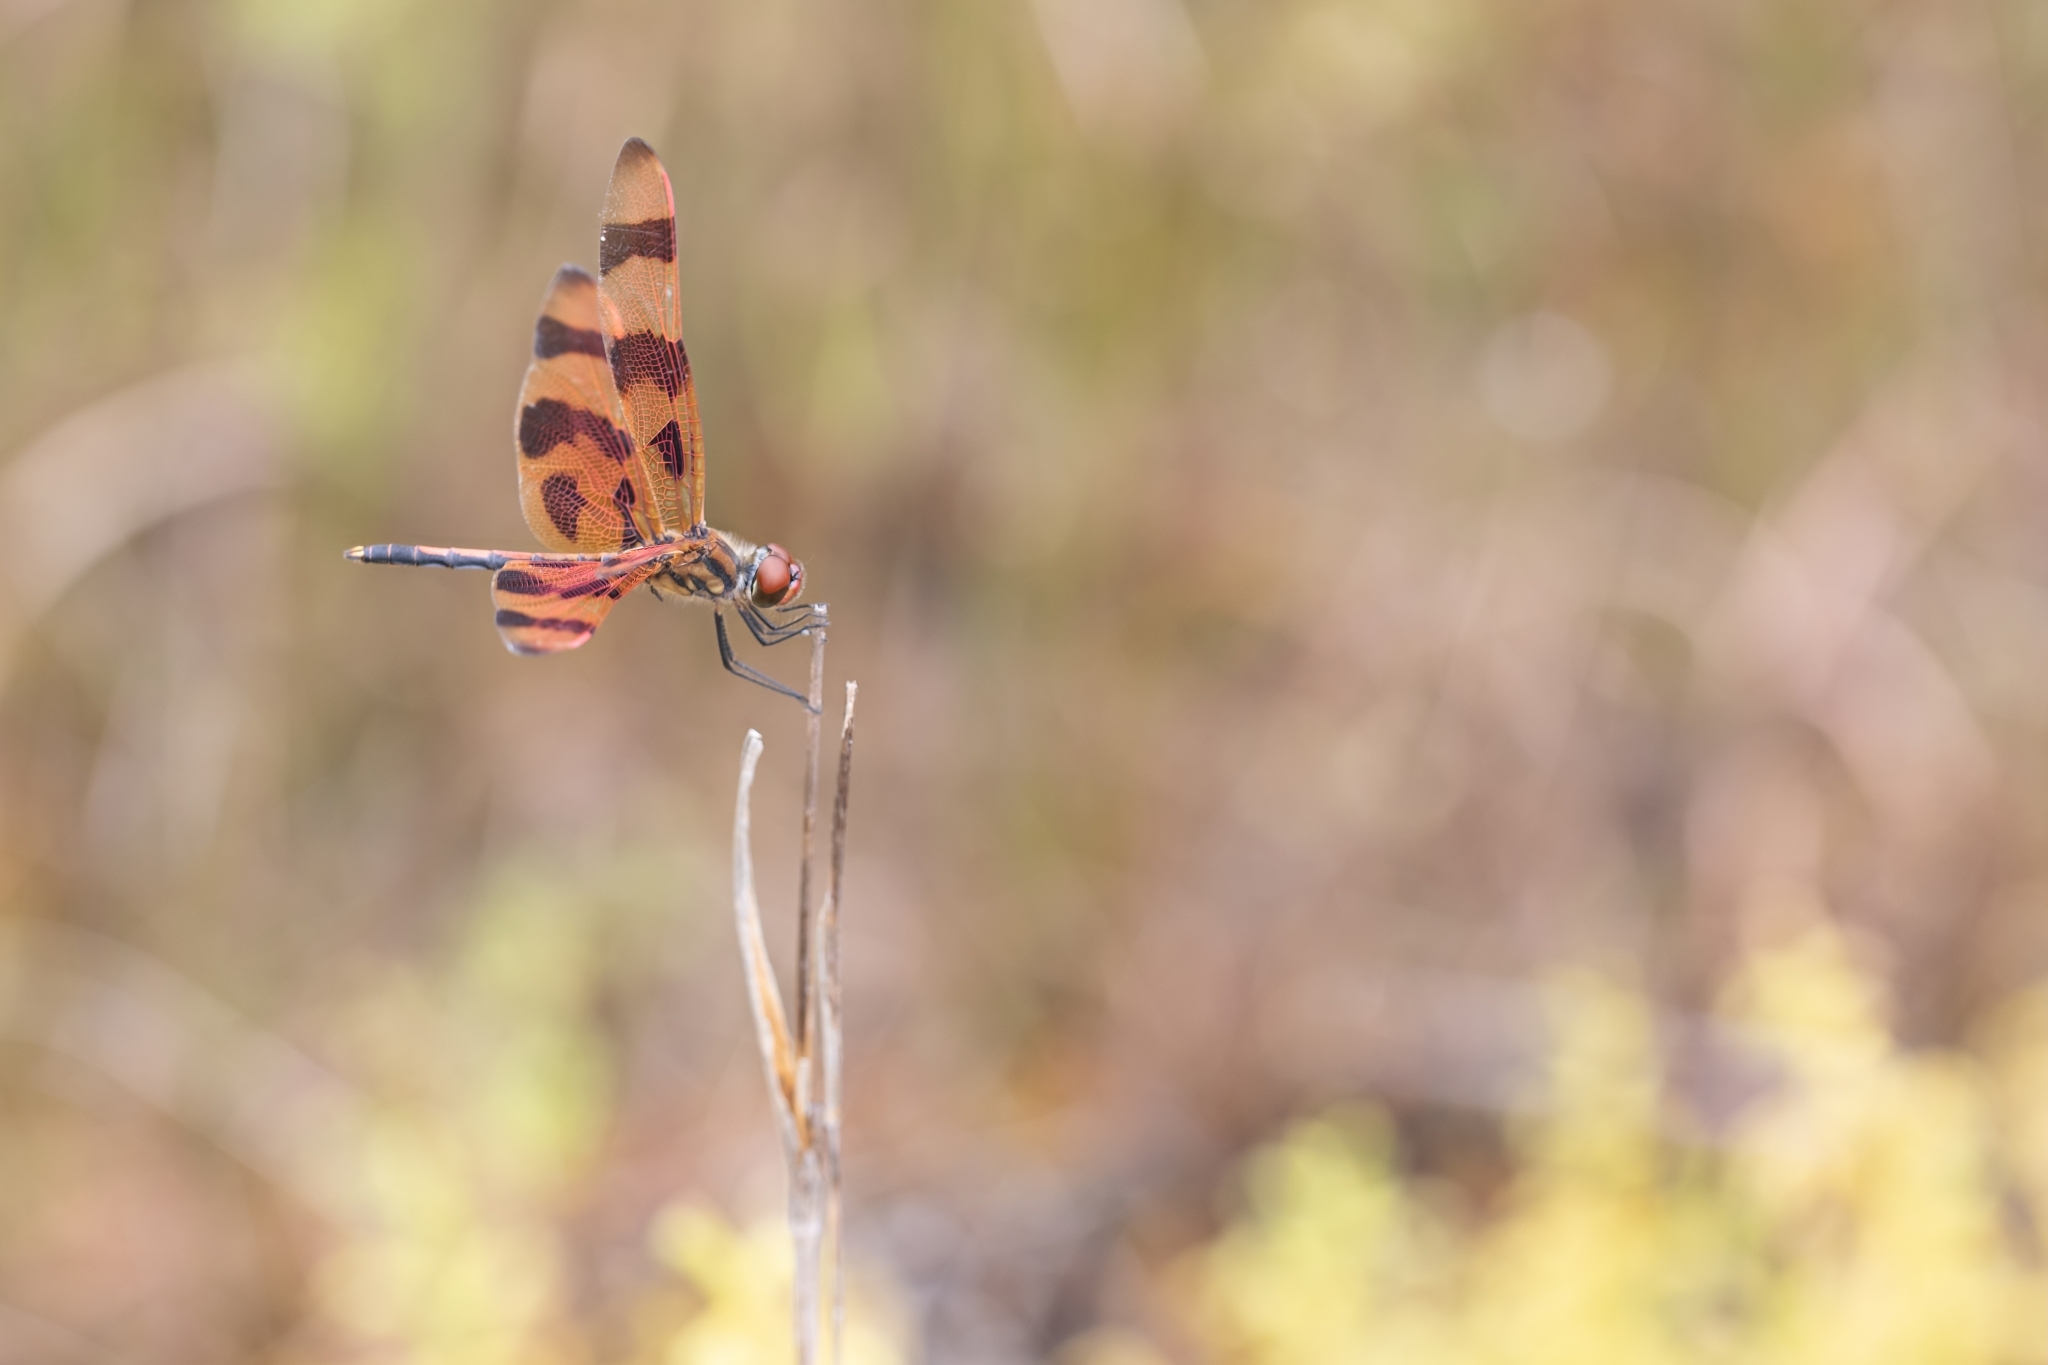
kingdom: Animalia
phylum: Arthropoda
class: Insecta
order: Odonata
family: Libellulidae
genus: Celithemis
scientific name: Celithemis eponina
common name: Halloween pennant
